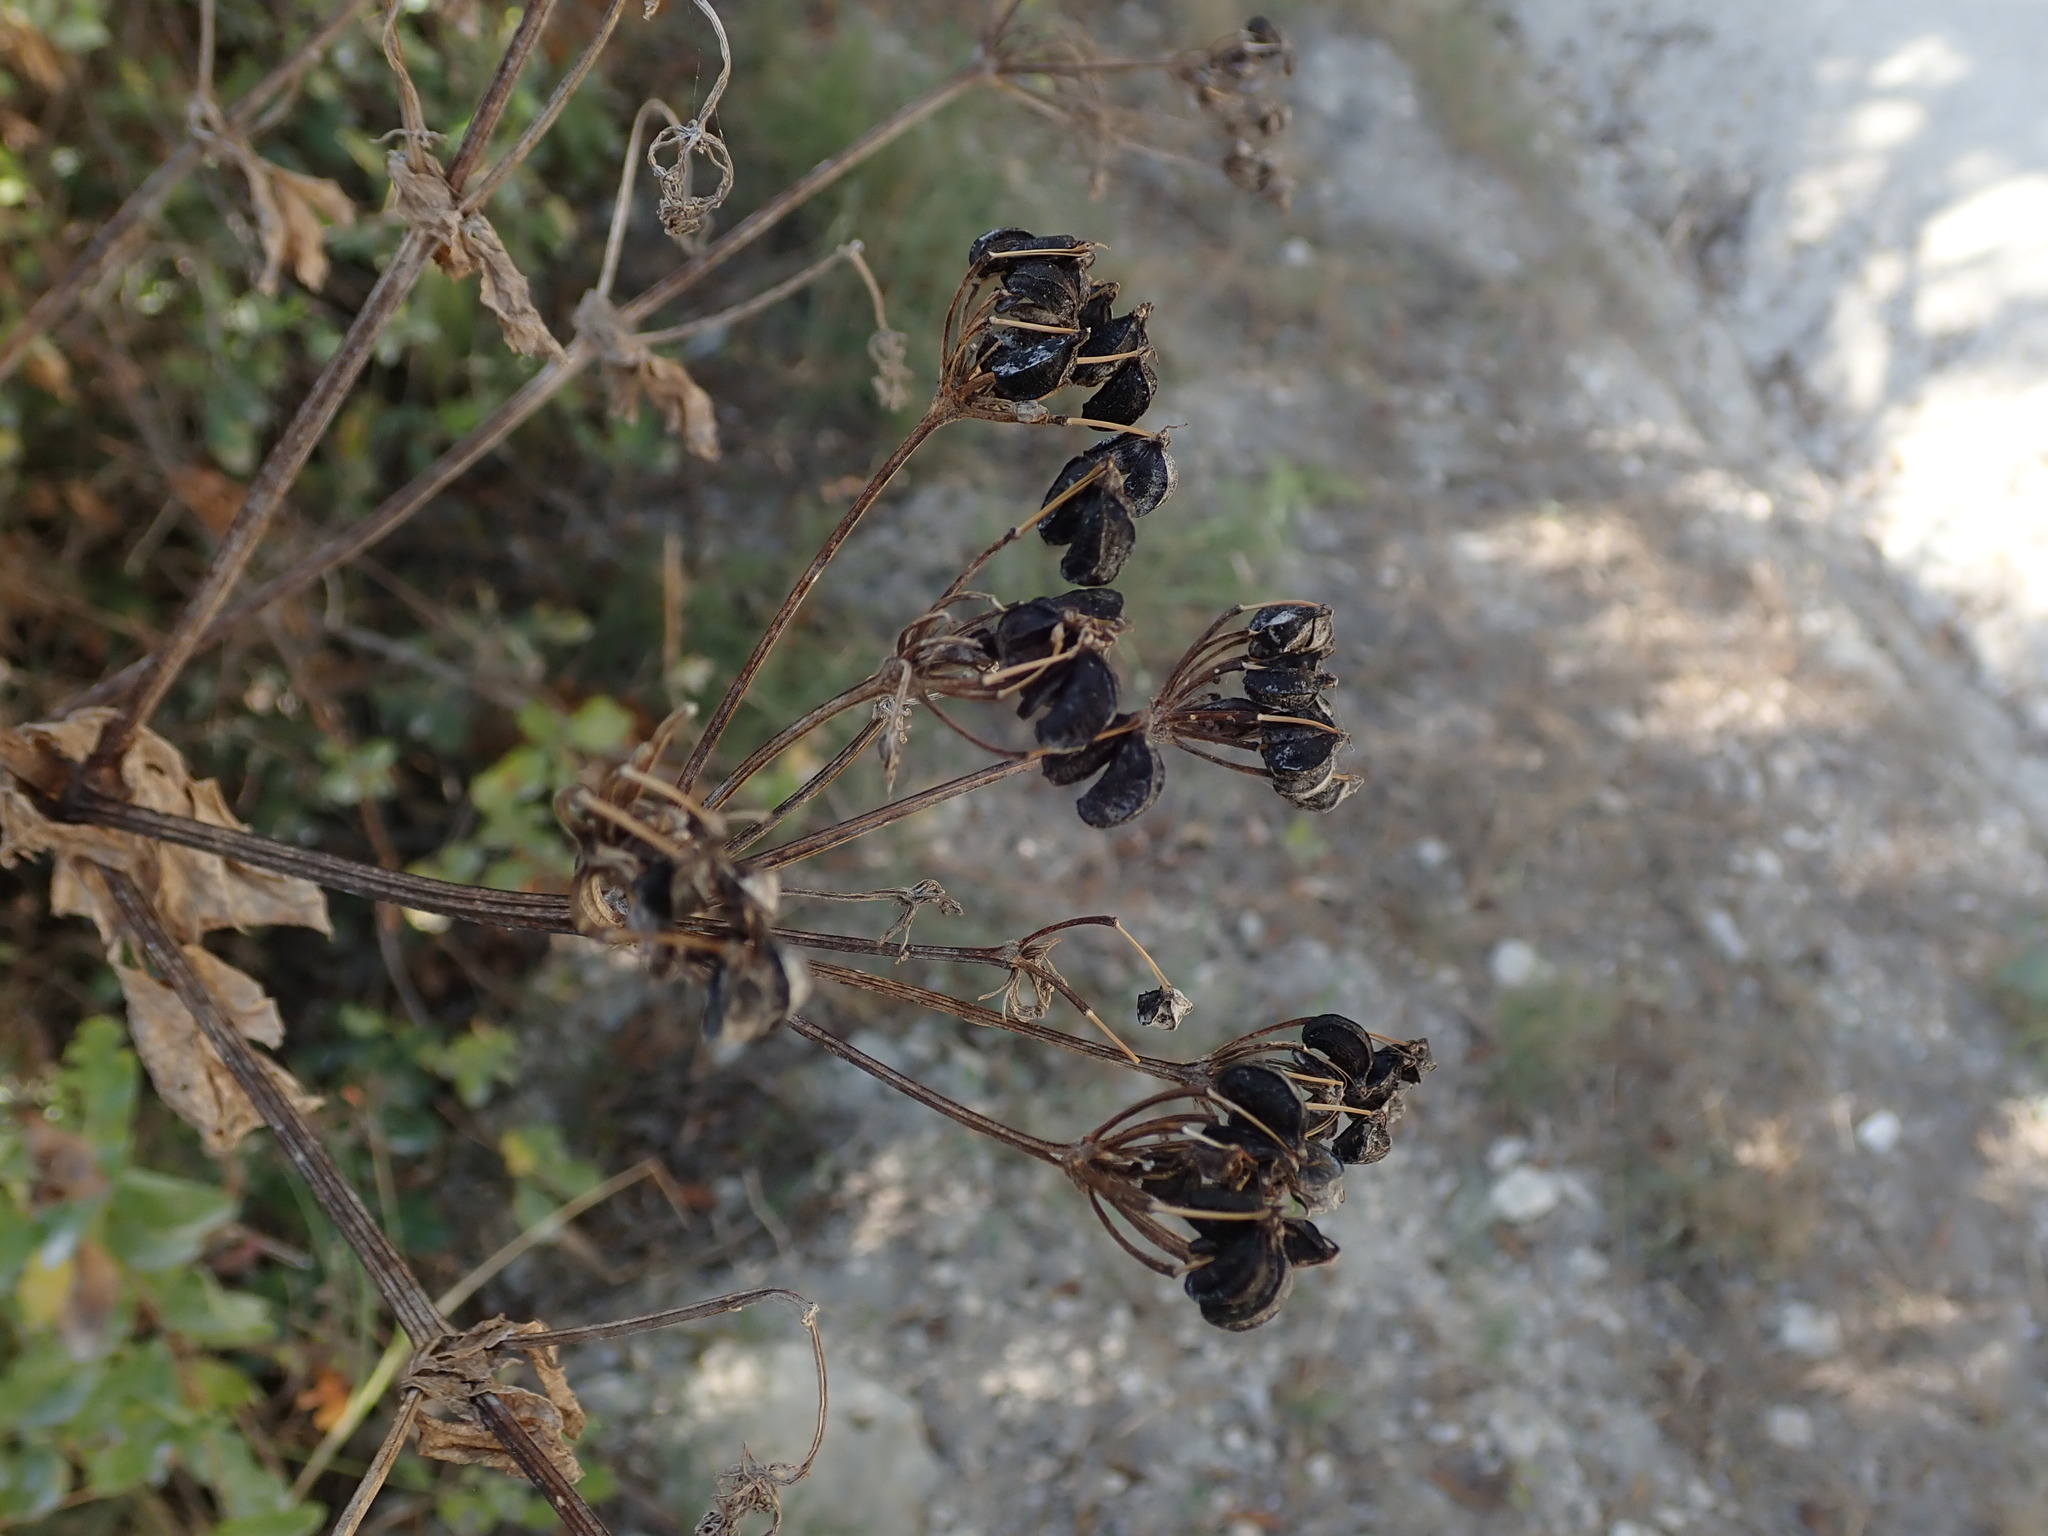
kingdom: Plantae
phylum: Tracheophyta
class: Magnoliopsida
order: Apiales
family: Apiaceae
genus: Smyrnium
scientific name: Smyrnium olusatrum
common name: Alexanders
